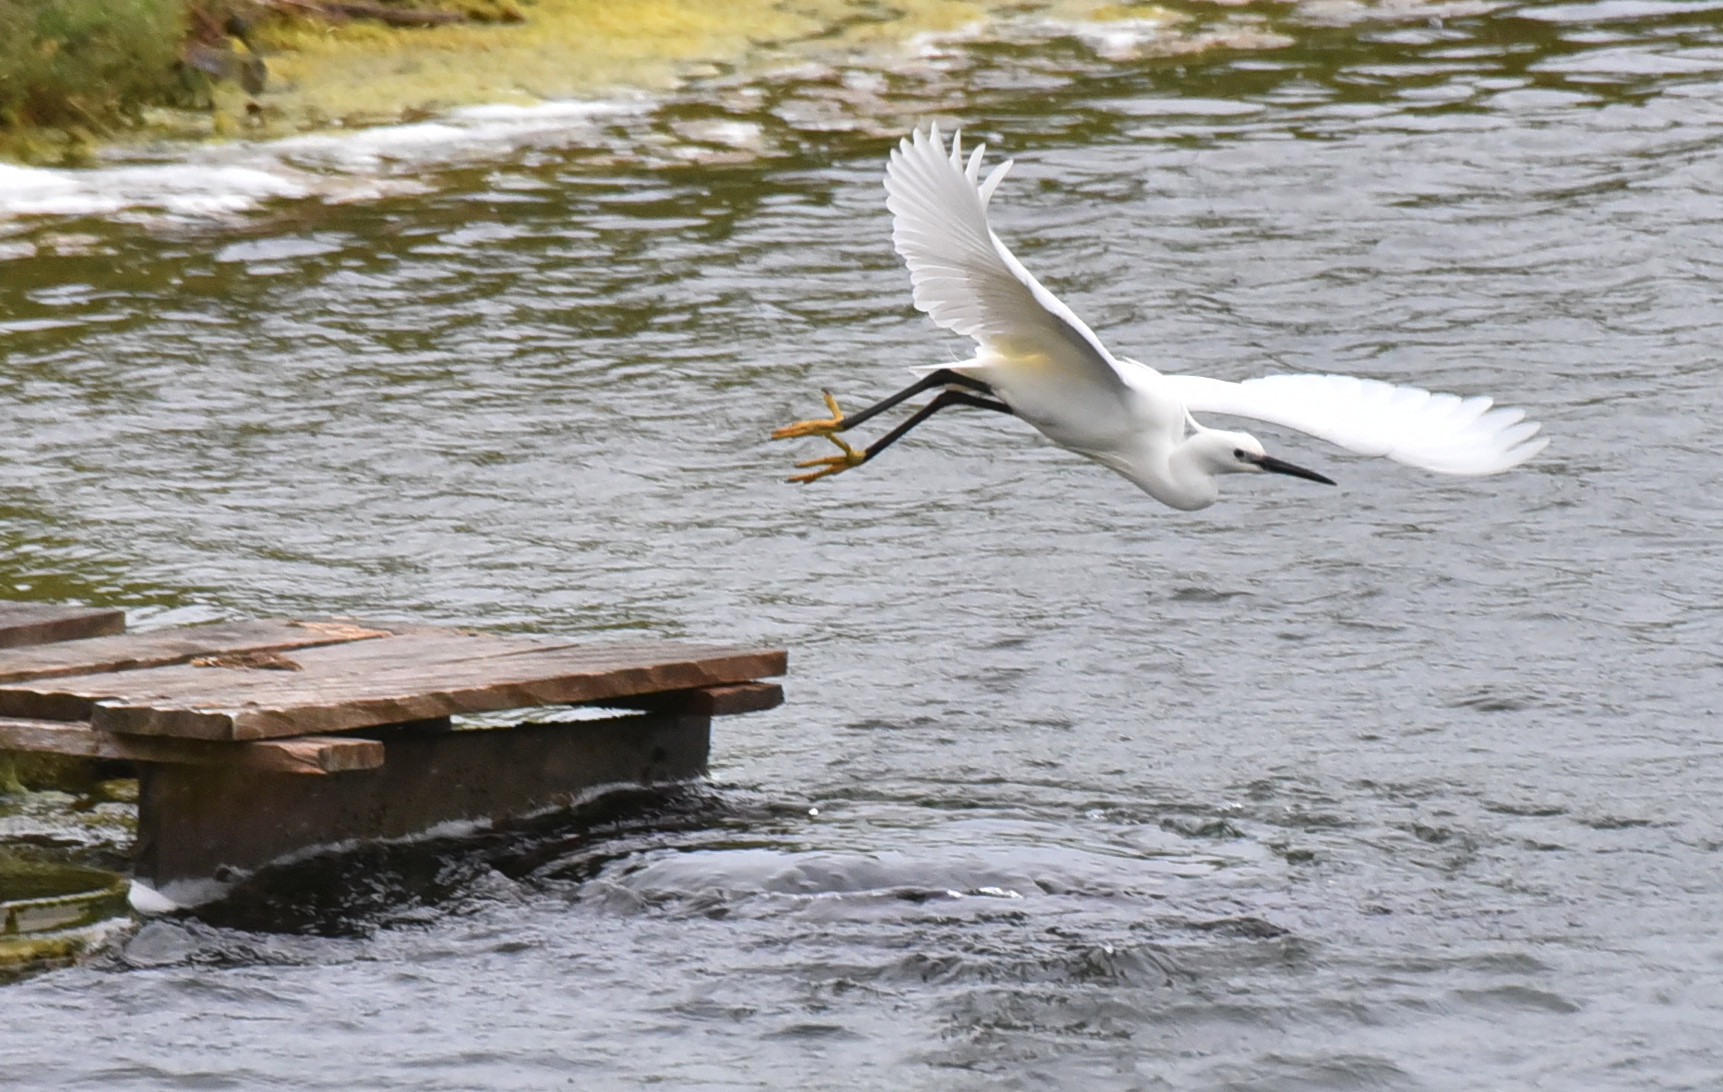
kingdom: Animalia
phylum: Chordata
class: Aves
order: Pelecaniformes
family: Ardeidae
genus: Egretta
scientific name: Egretta garzetta
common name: Little egret
